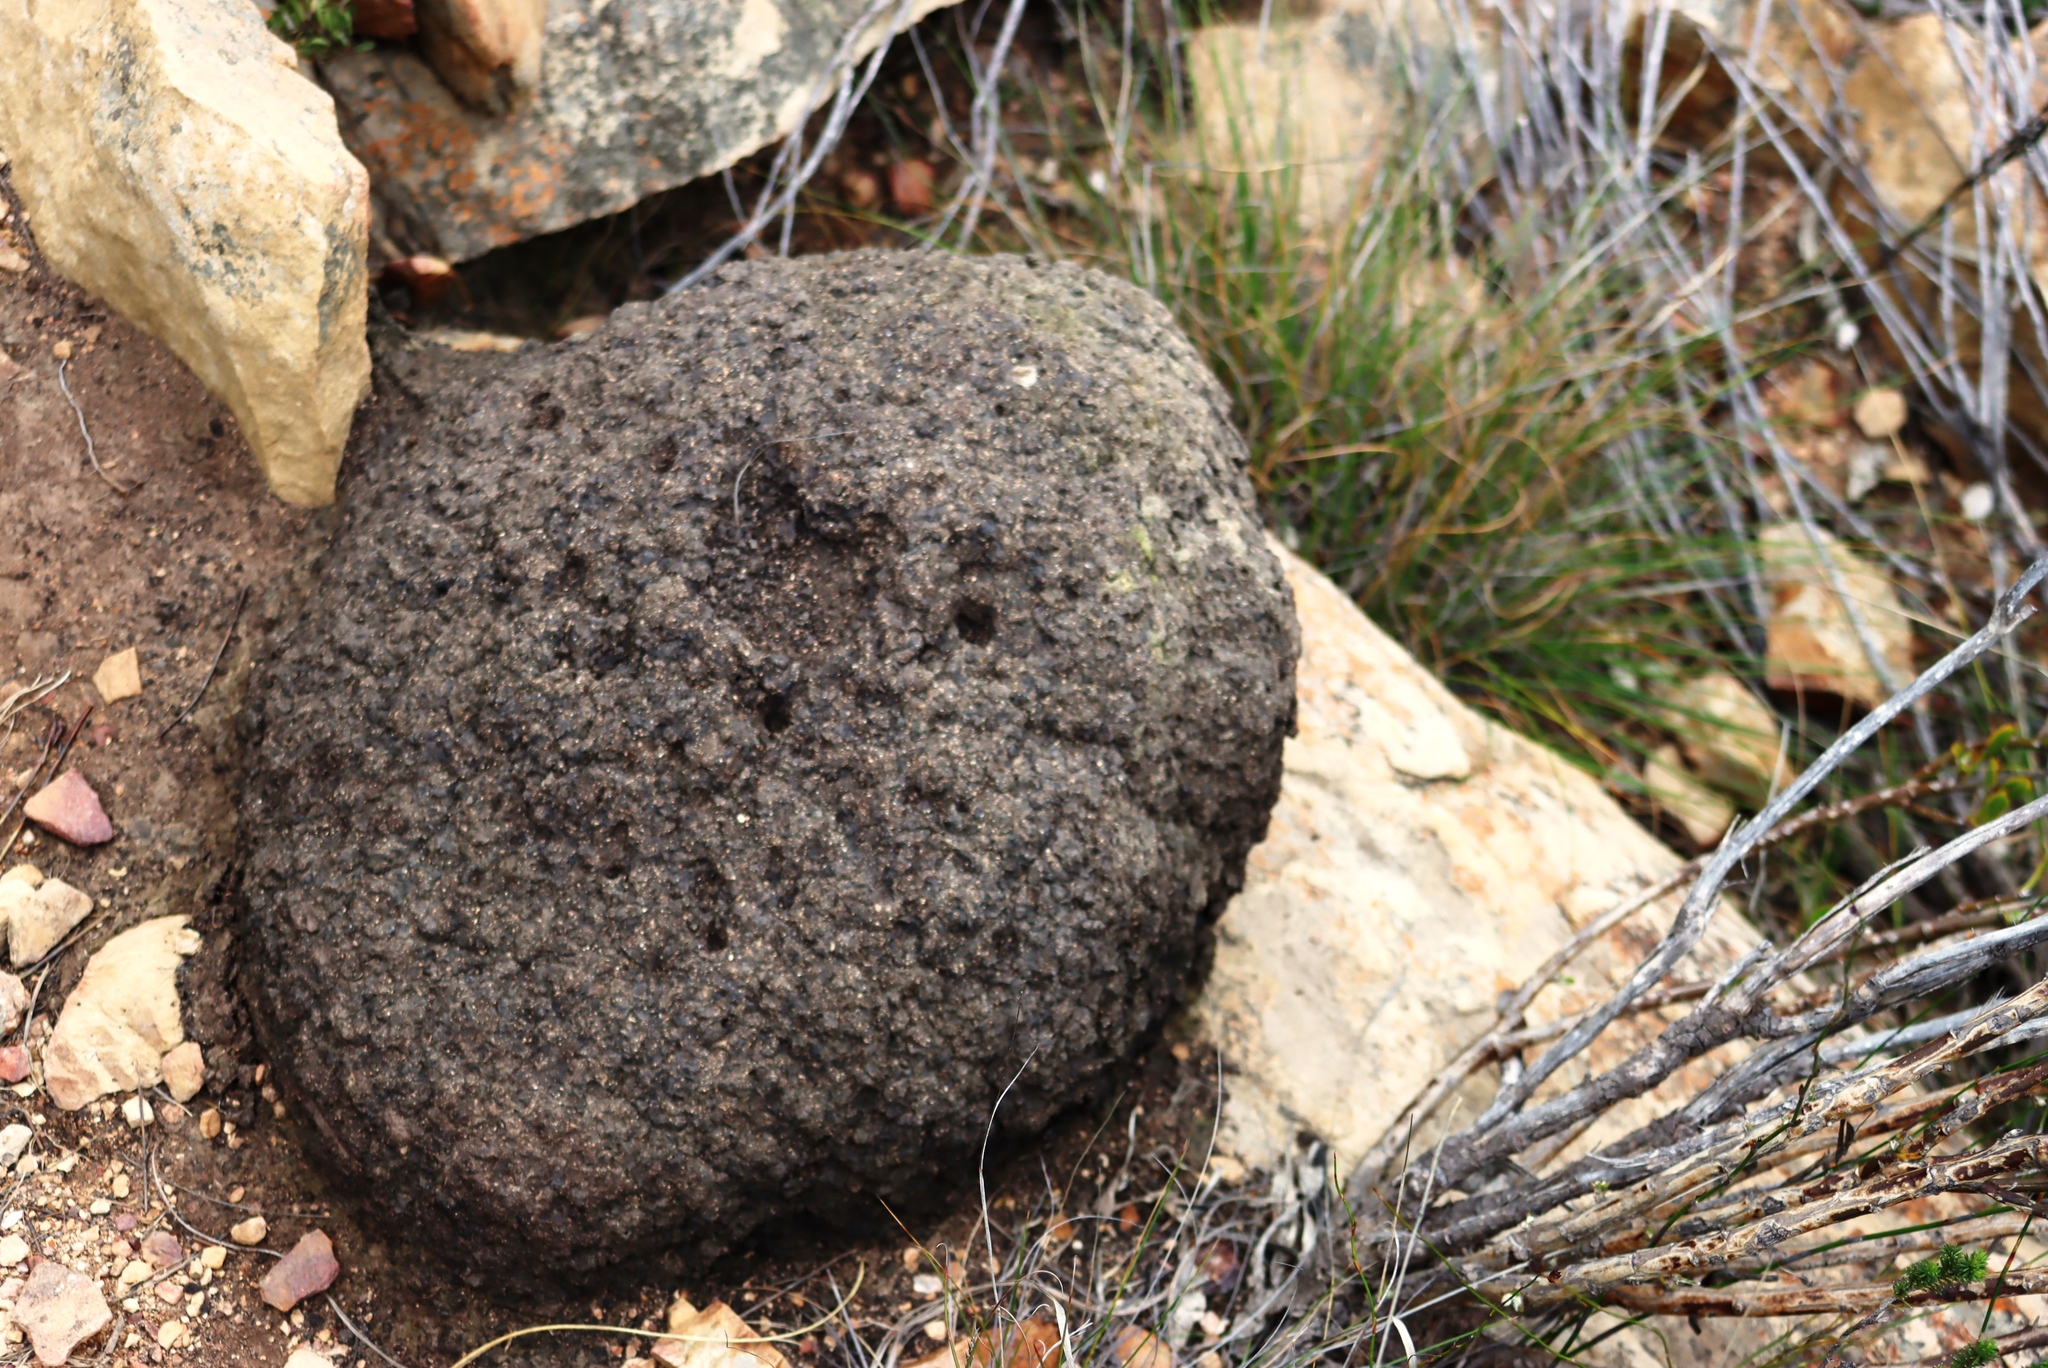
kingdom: Animalia
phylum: Arthropoda
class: Insecta
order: Blattodea
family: Termitidae
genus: Amitermes
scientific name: Amitermes hastatus
